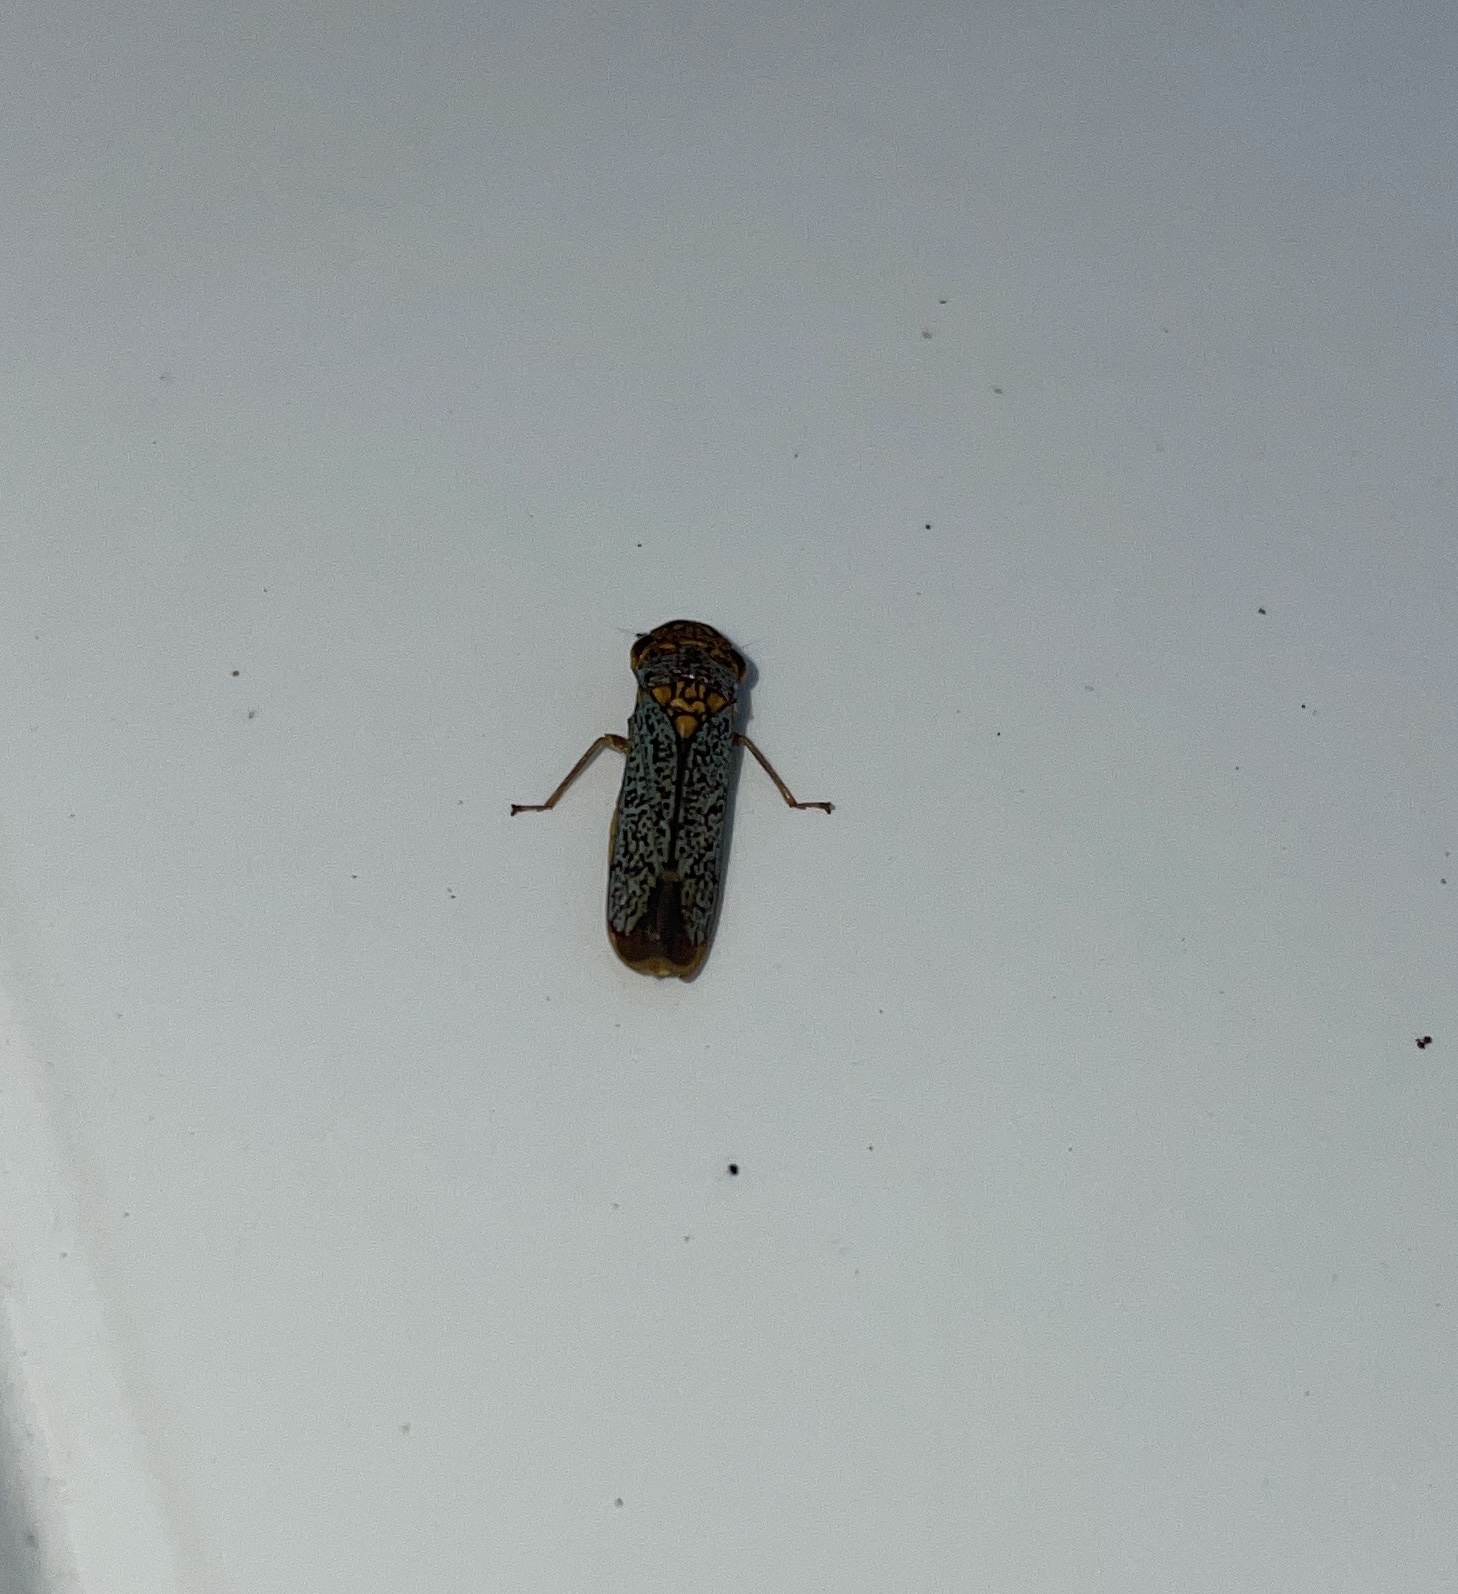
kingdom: Animalia
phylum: Arthropoda
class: Insecta
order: Hemiptera
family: Cicadellidae
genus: Oncometopia
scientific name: Oncometopia orbona
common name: Broad-headed sharpshooter
